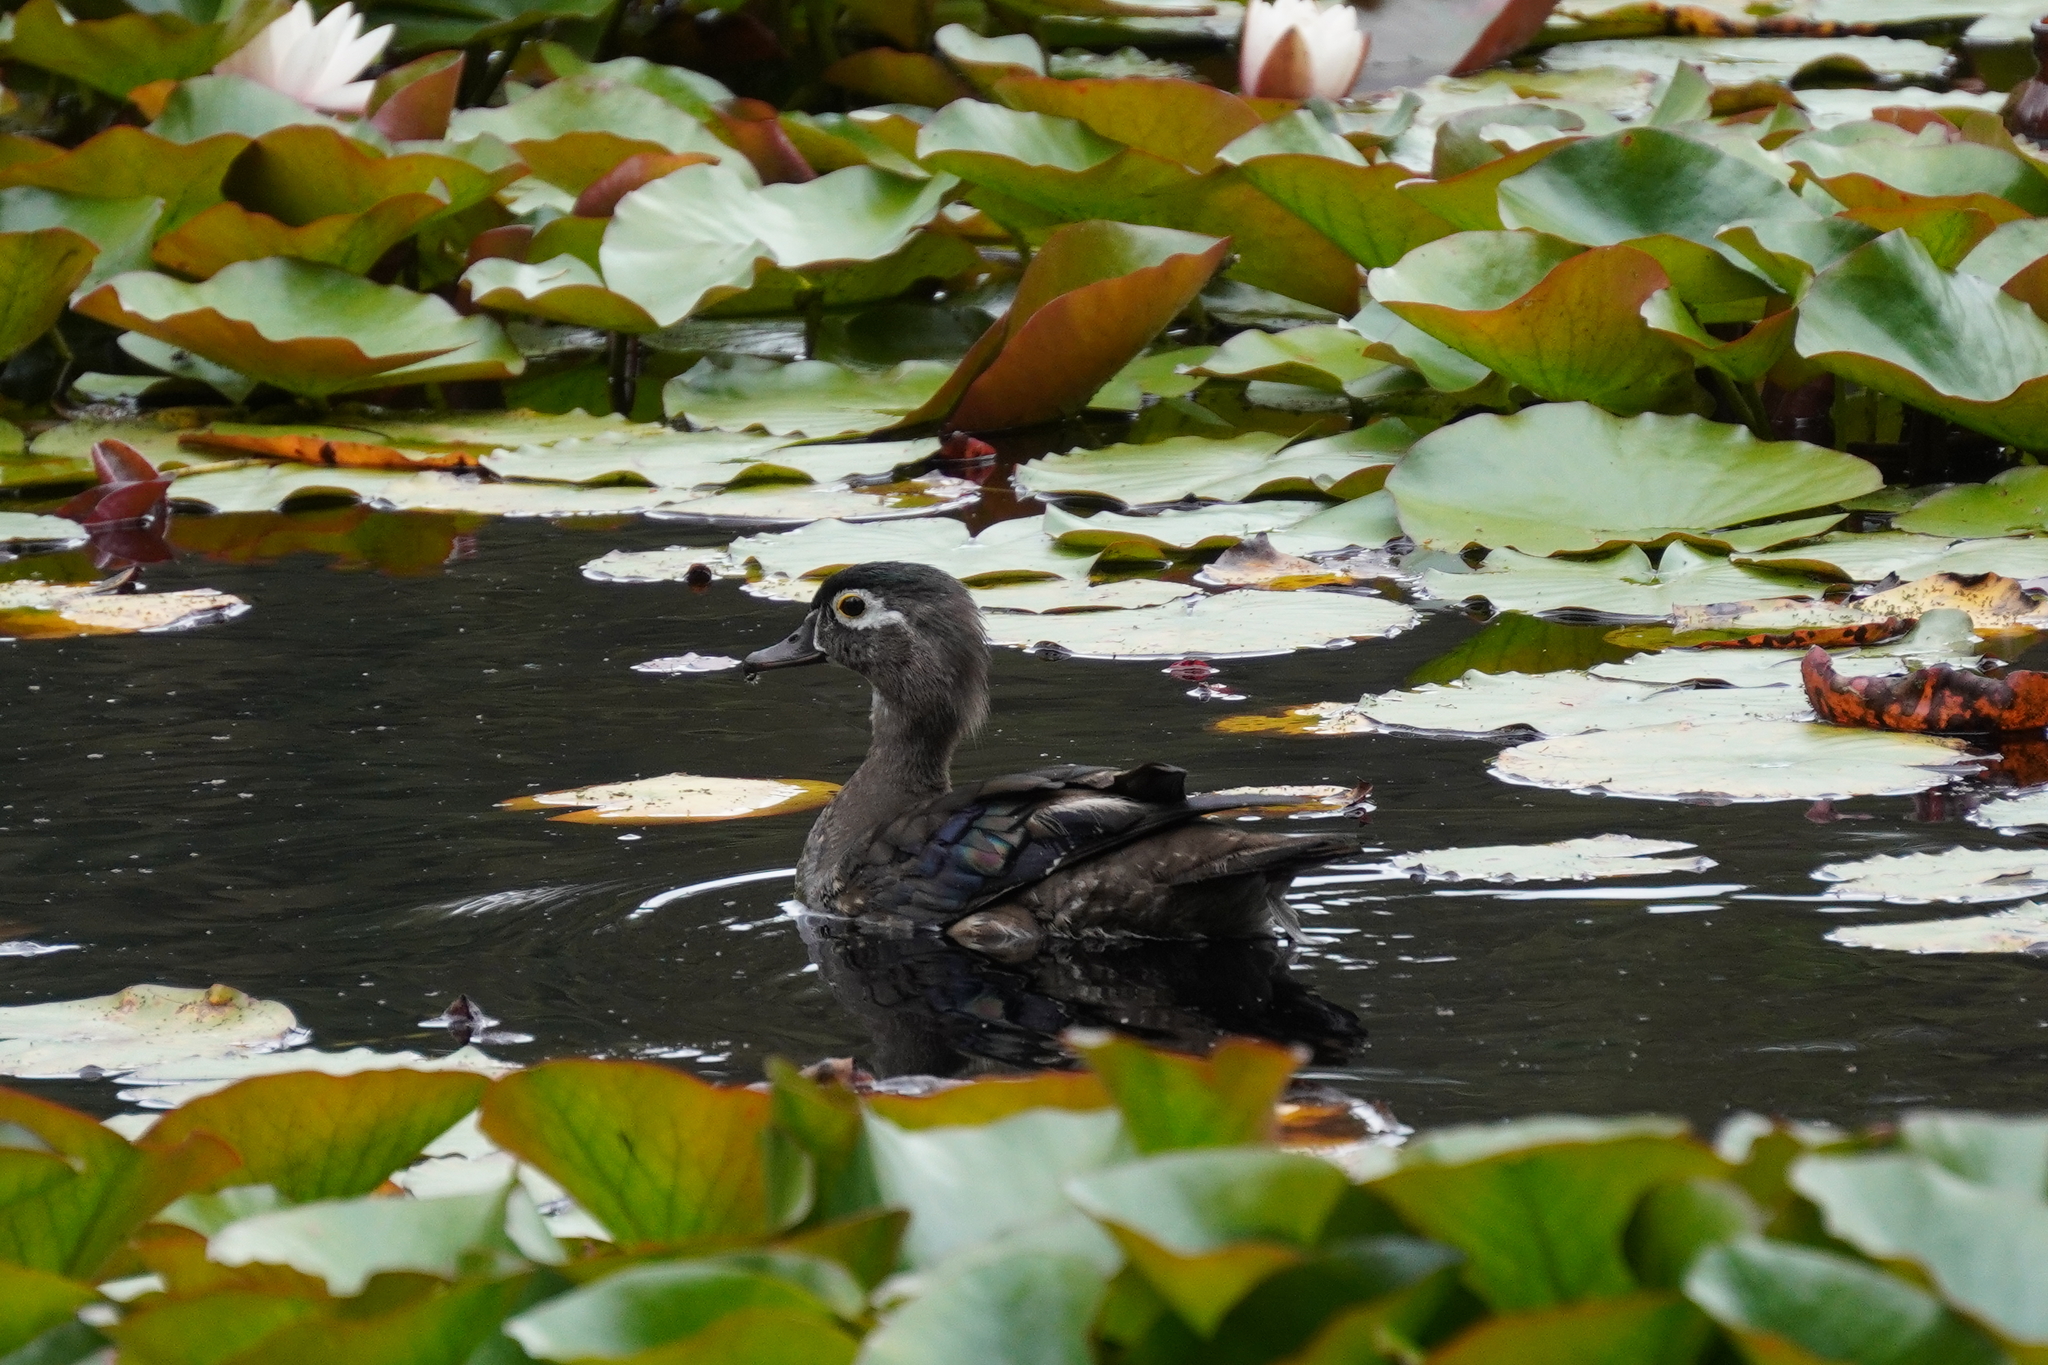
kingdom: Animalia
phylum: Chordata
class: Aves
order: Anseriformes
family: Anatidae
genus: Aix
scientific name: Aix sponsa
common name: Wood duck
